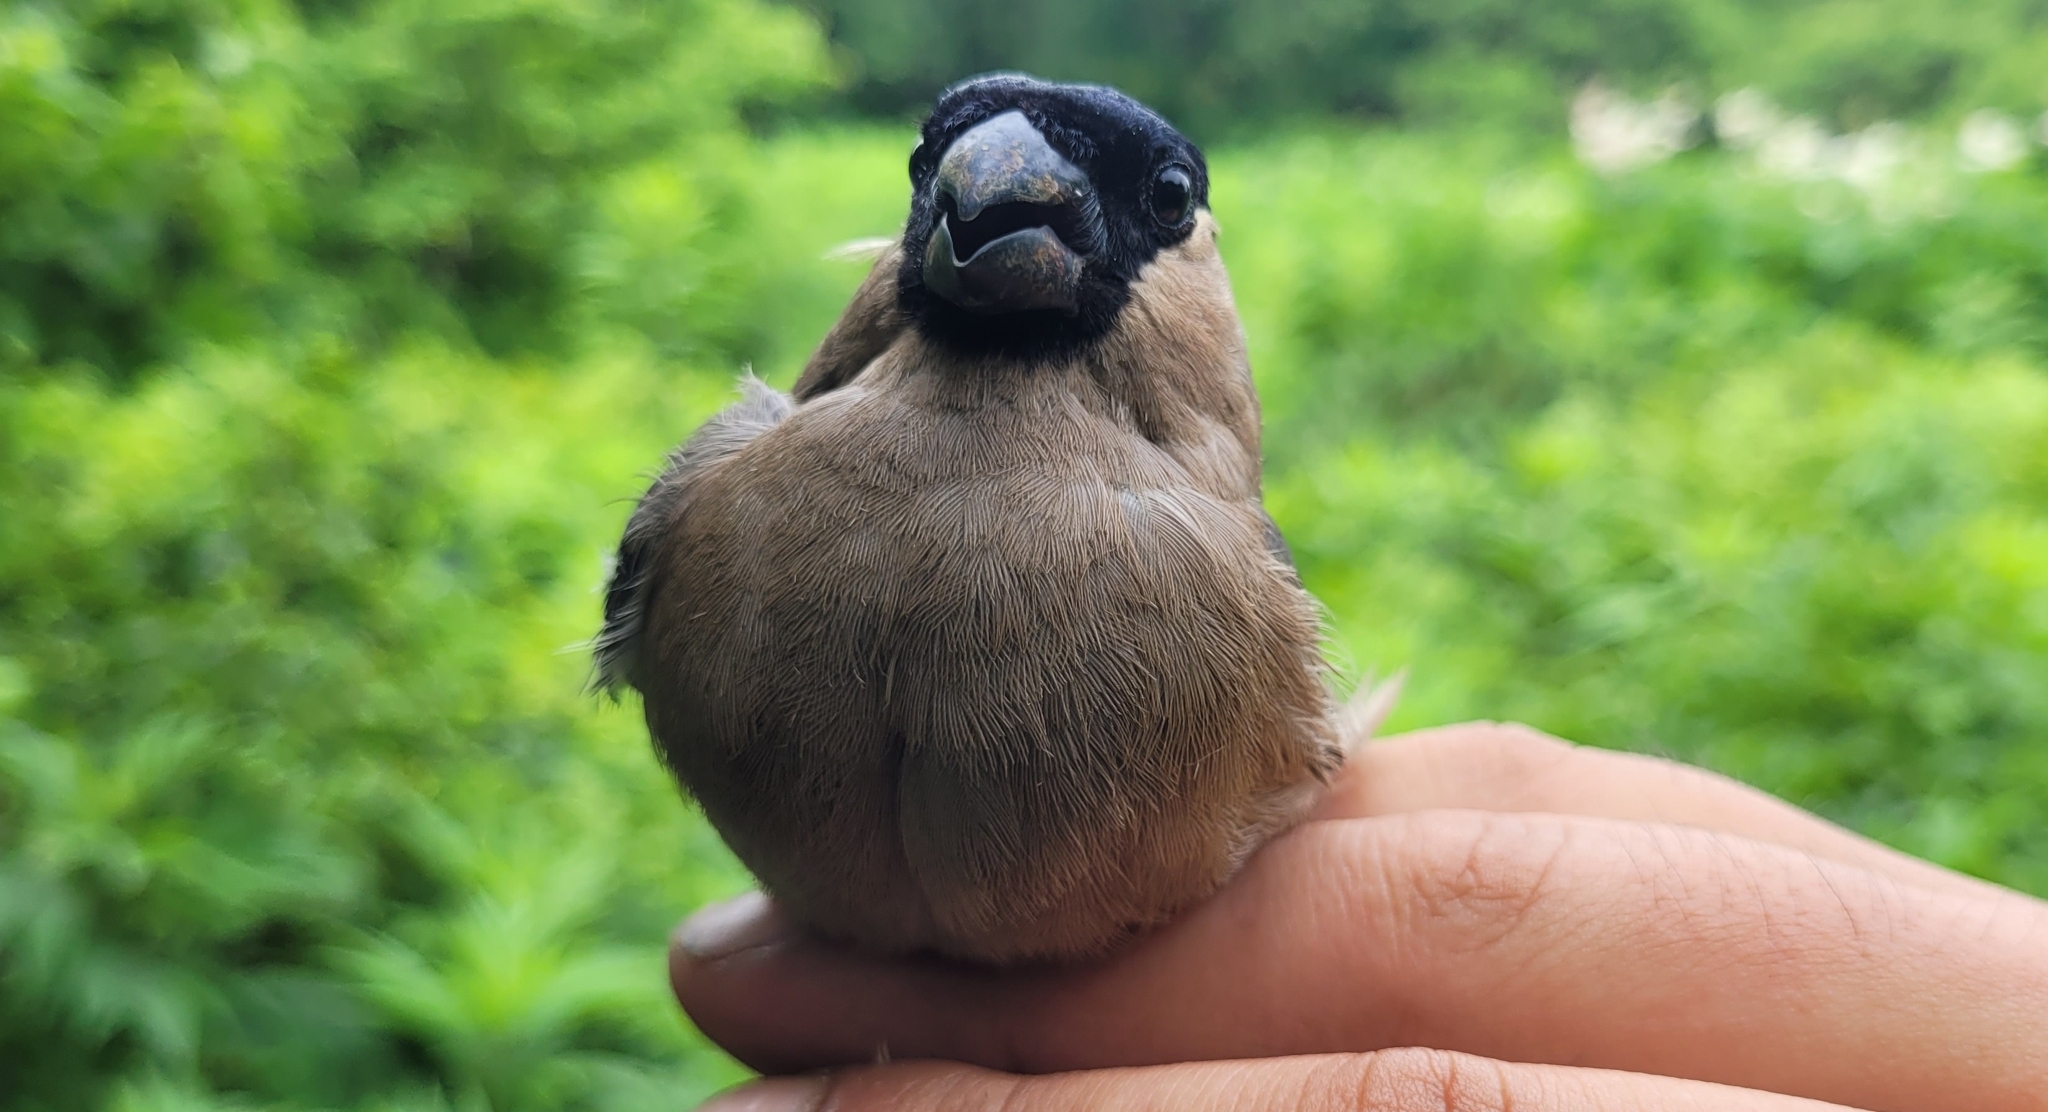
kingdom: Animalia
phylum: Chordata
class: Aves
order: Passeriformes
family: Fringillidae
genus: Pyrrhula
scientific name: Pyrrhula pyrrhula
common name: Eurasian bullfinch
